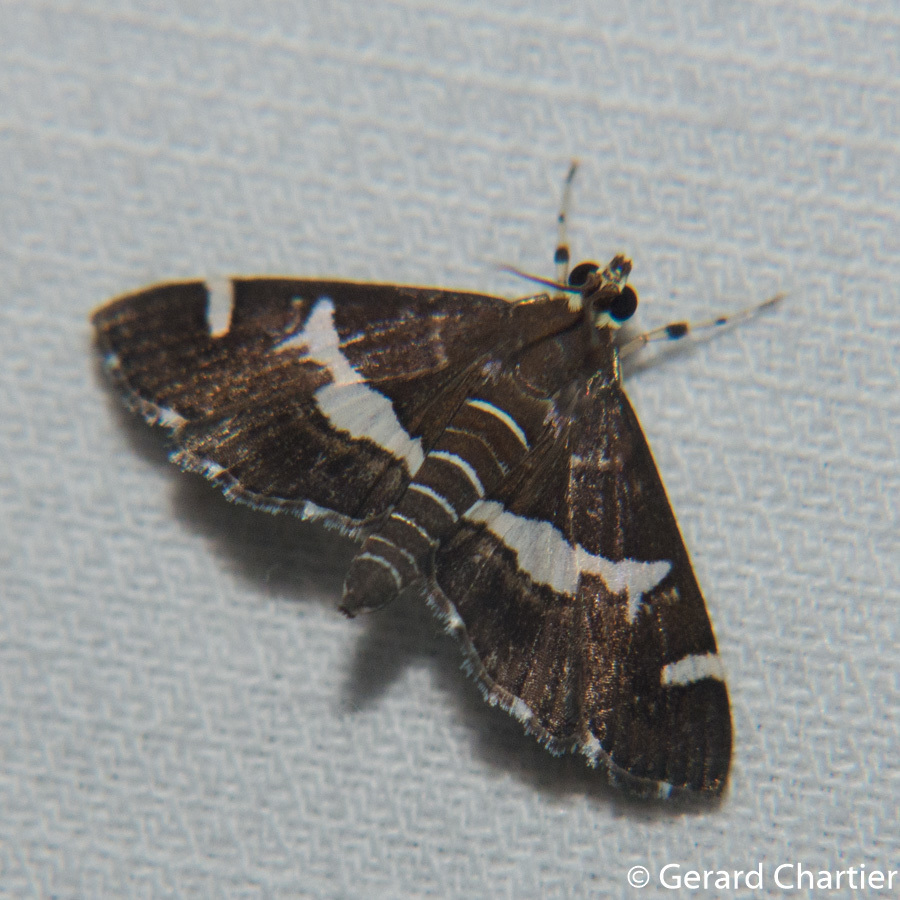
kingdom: Animalia
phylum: Arthropoda
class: Insecta
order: Lepidoptera
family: Crambidae
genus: Spoladea
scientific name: Spoladea recurvalis
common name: Beet webworm moth
